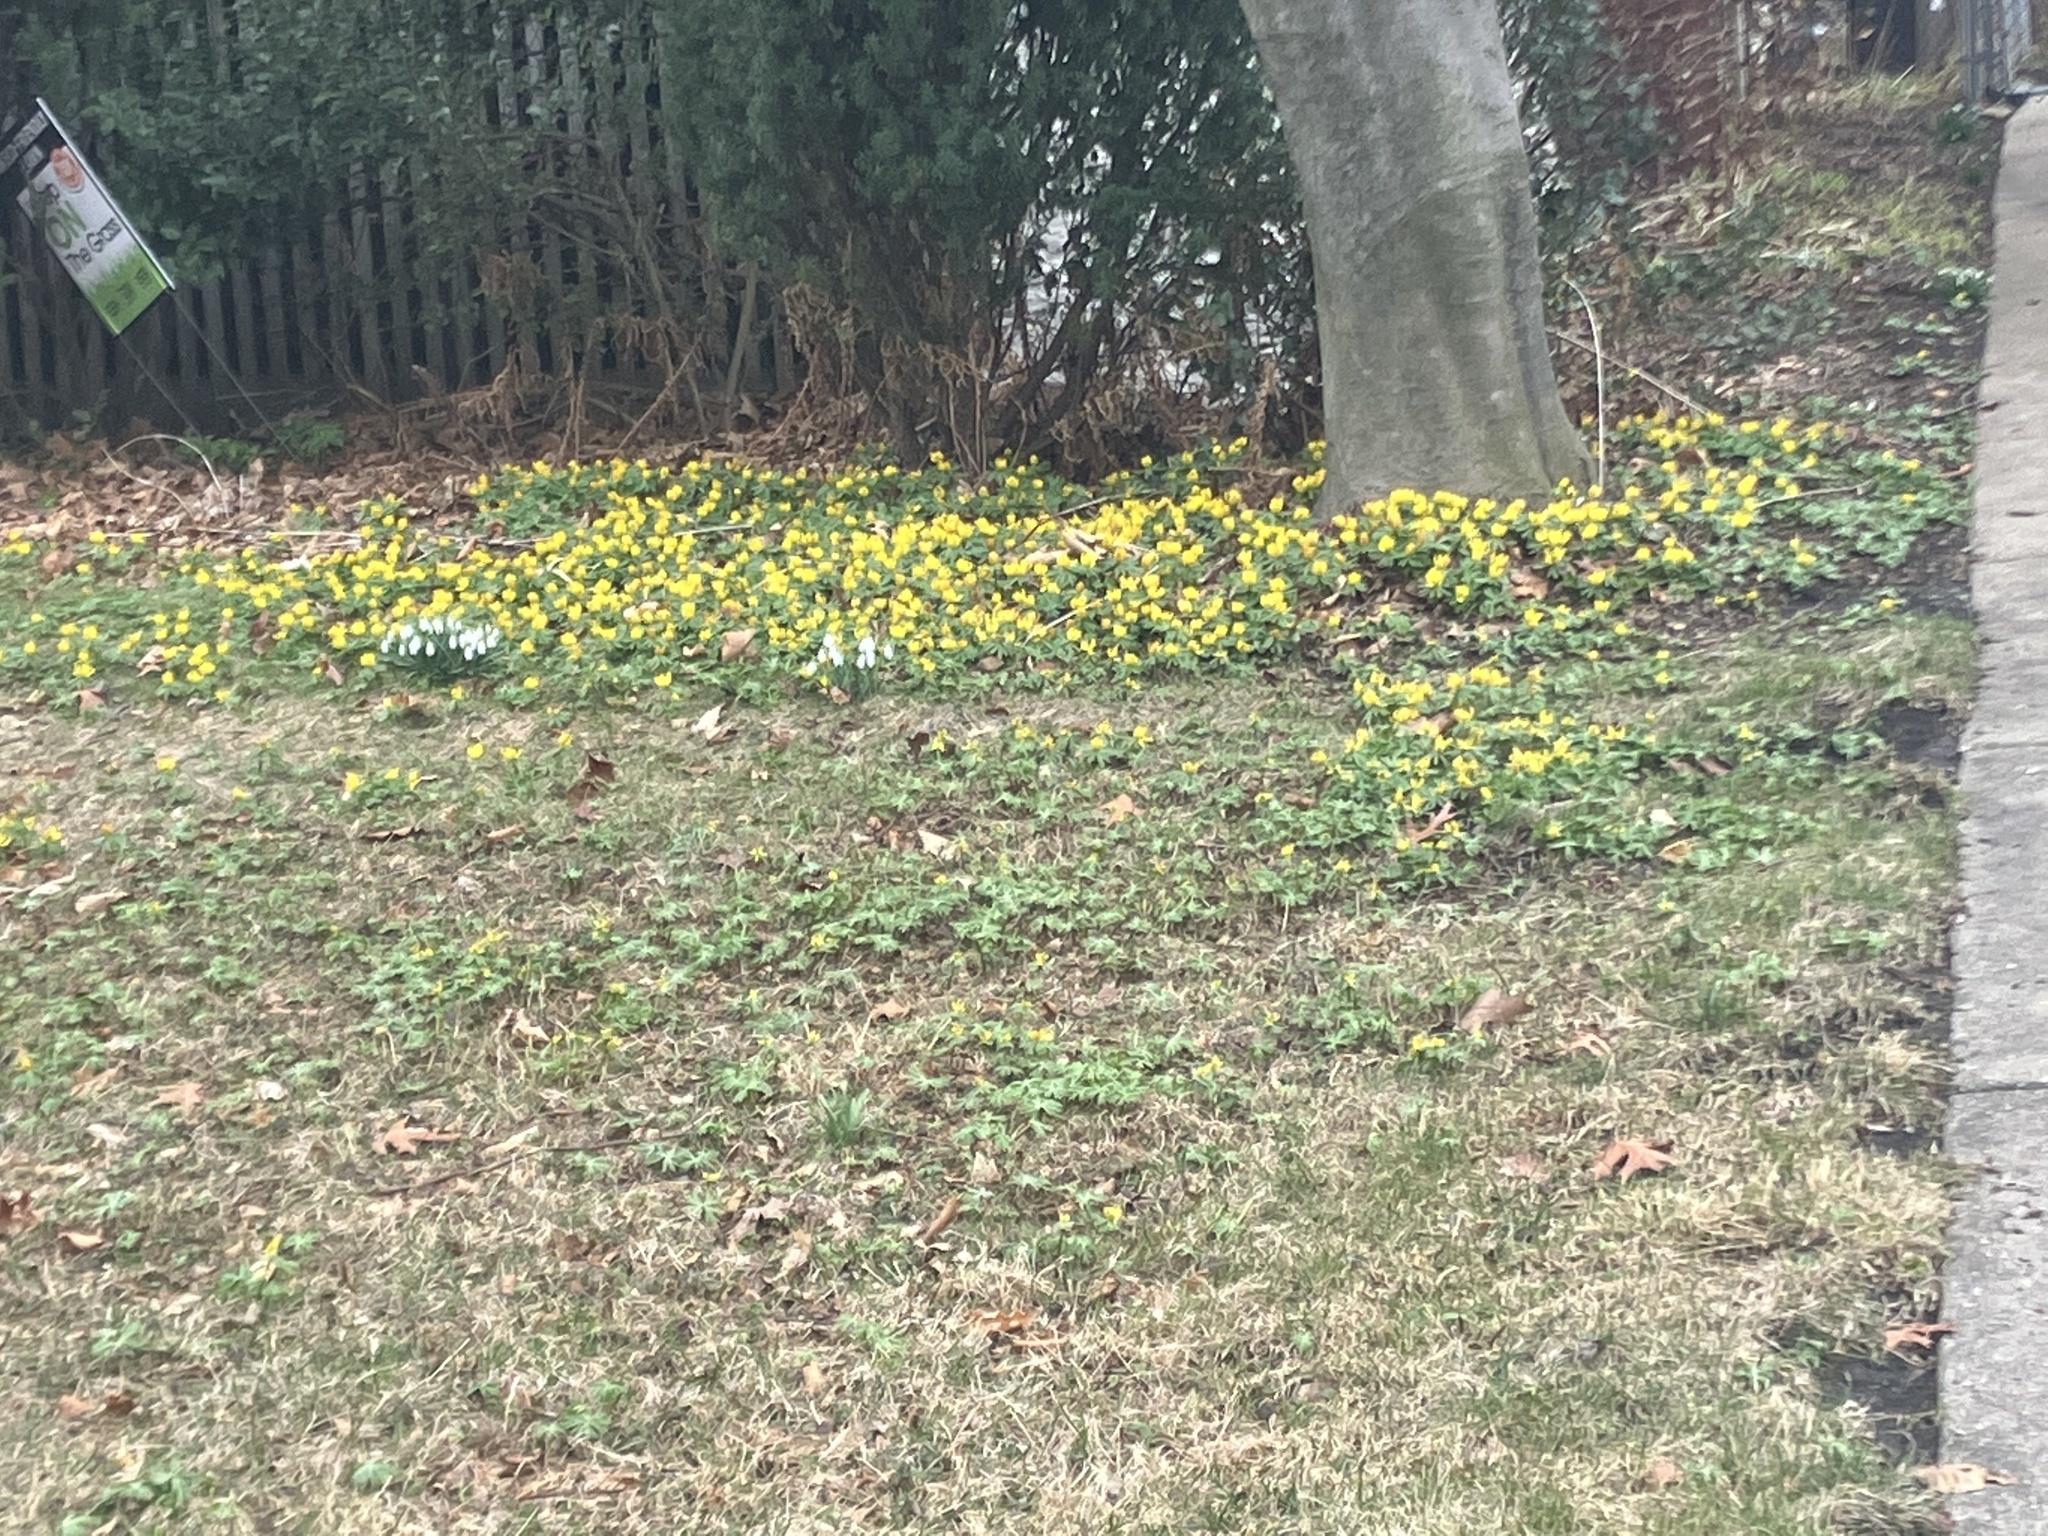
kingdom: Plantae
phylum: Tracheophyta
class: Magnoliopsida
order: Ranunculales
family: Ranunculaceae
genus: Eranthis
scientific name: Eranthis hyemalis
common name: Winter aconite
